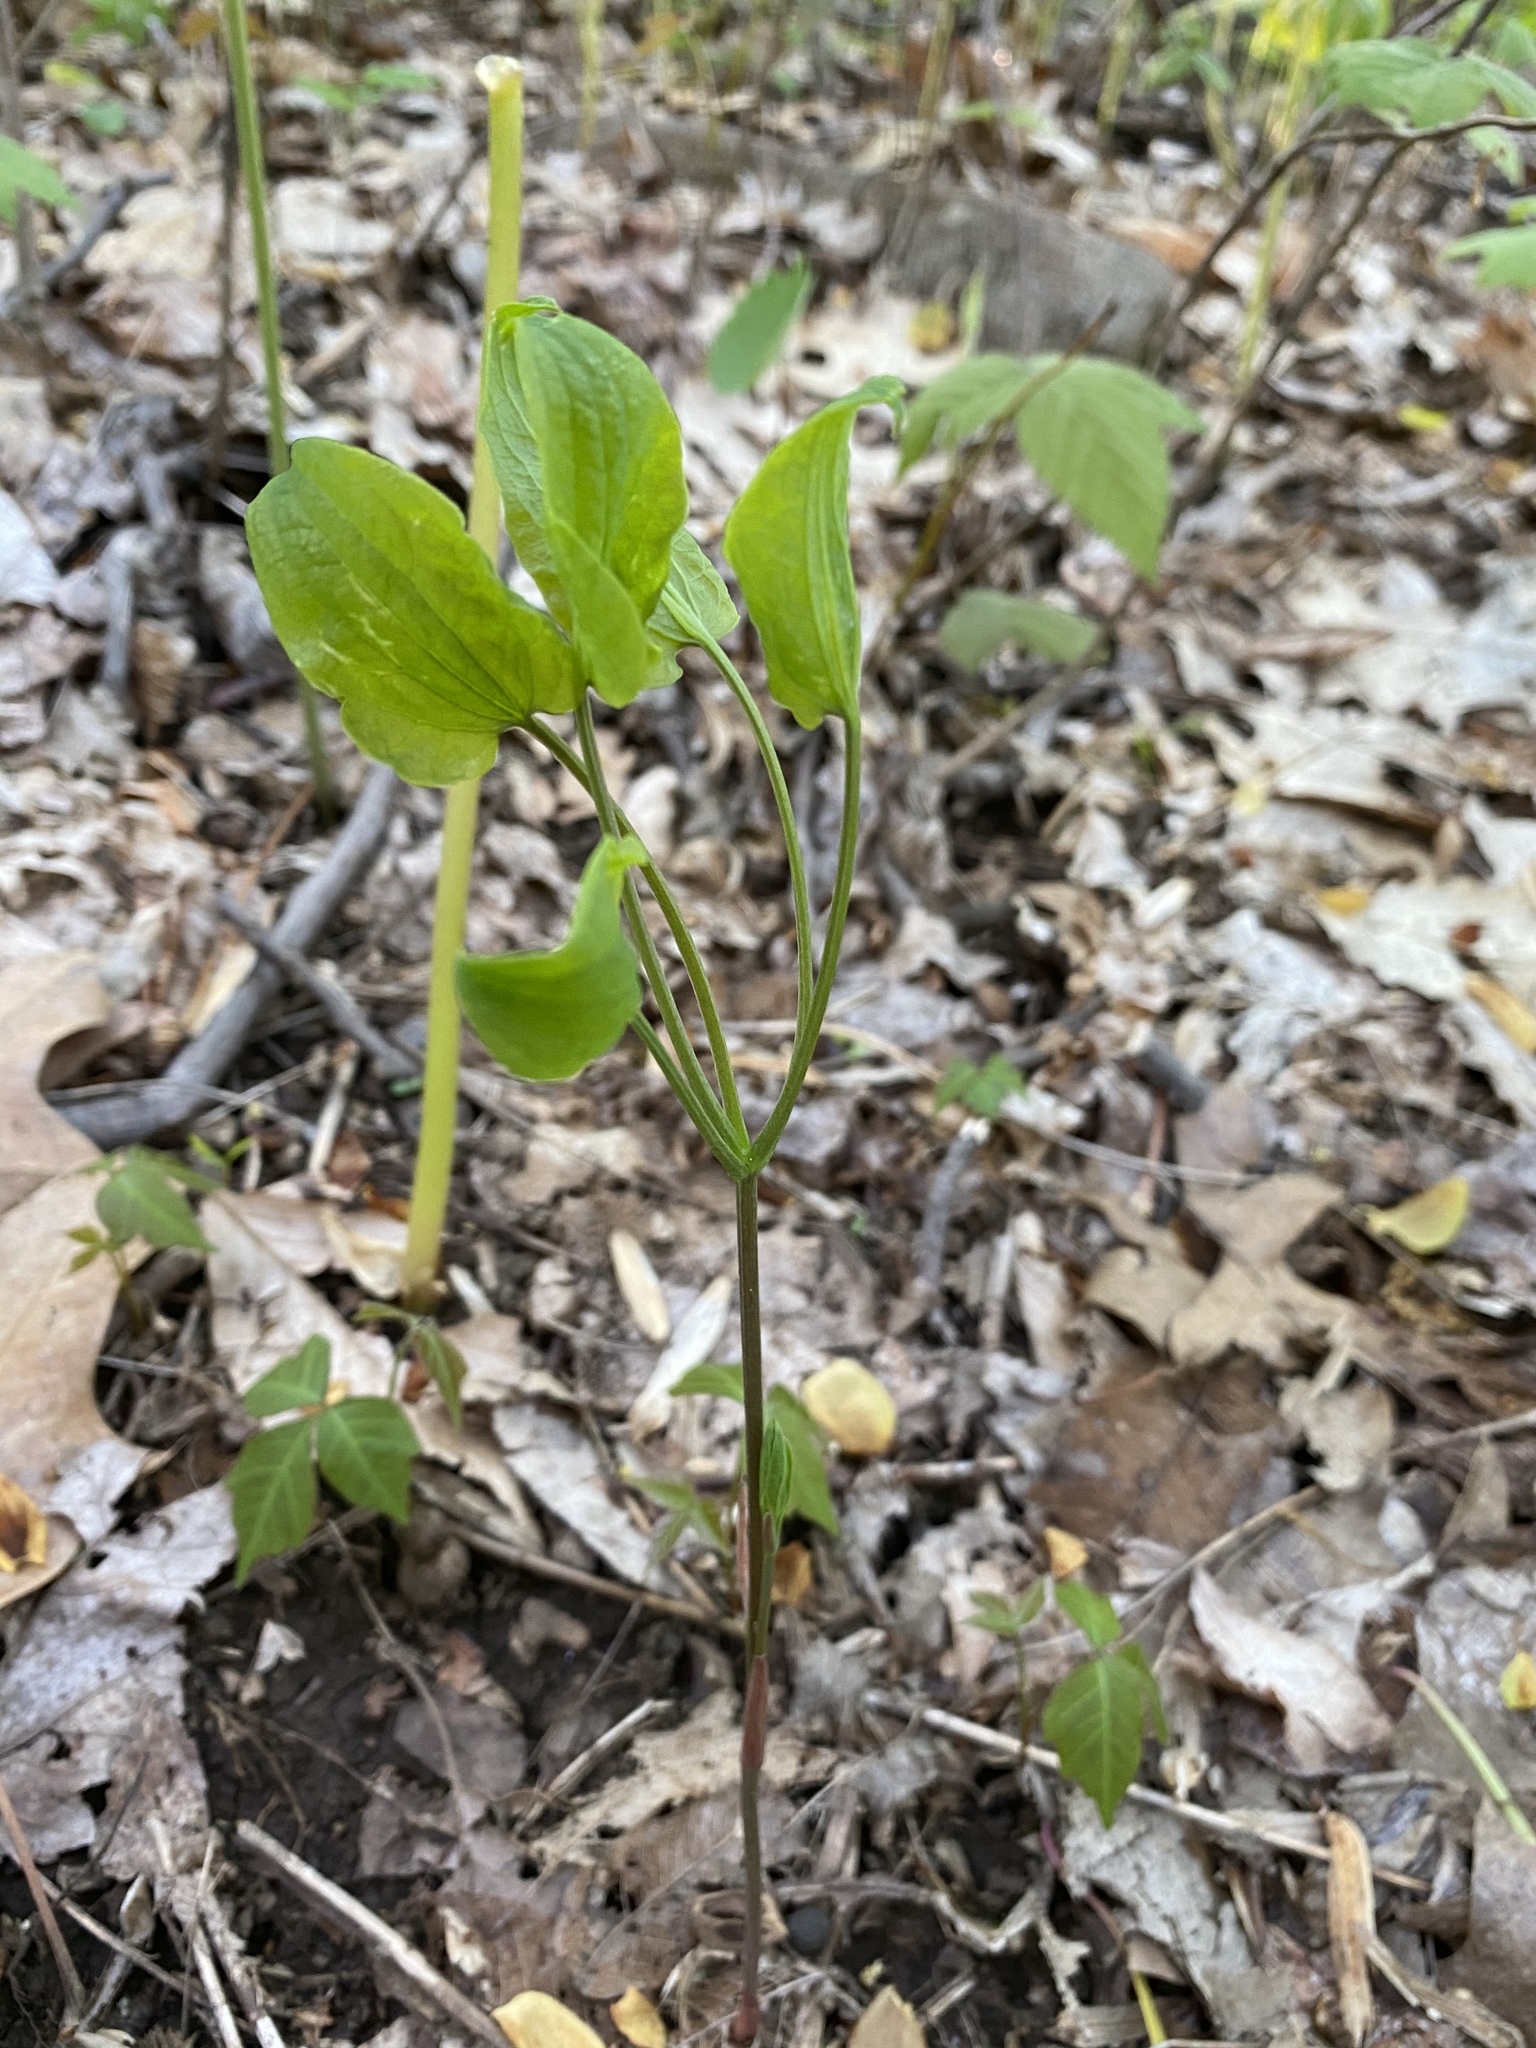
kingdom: Plantae
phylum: Tracheophyta
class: Liliopsida
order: Liliales
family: Smilacaceae
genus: Smilax
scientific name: Smilax herbacea
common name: Jacob's-ladder
